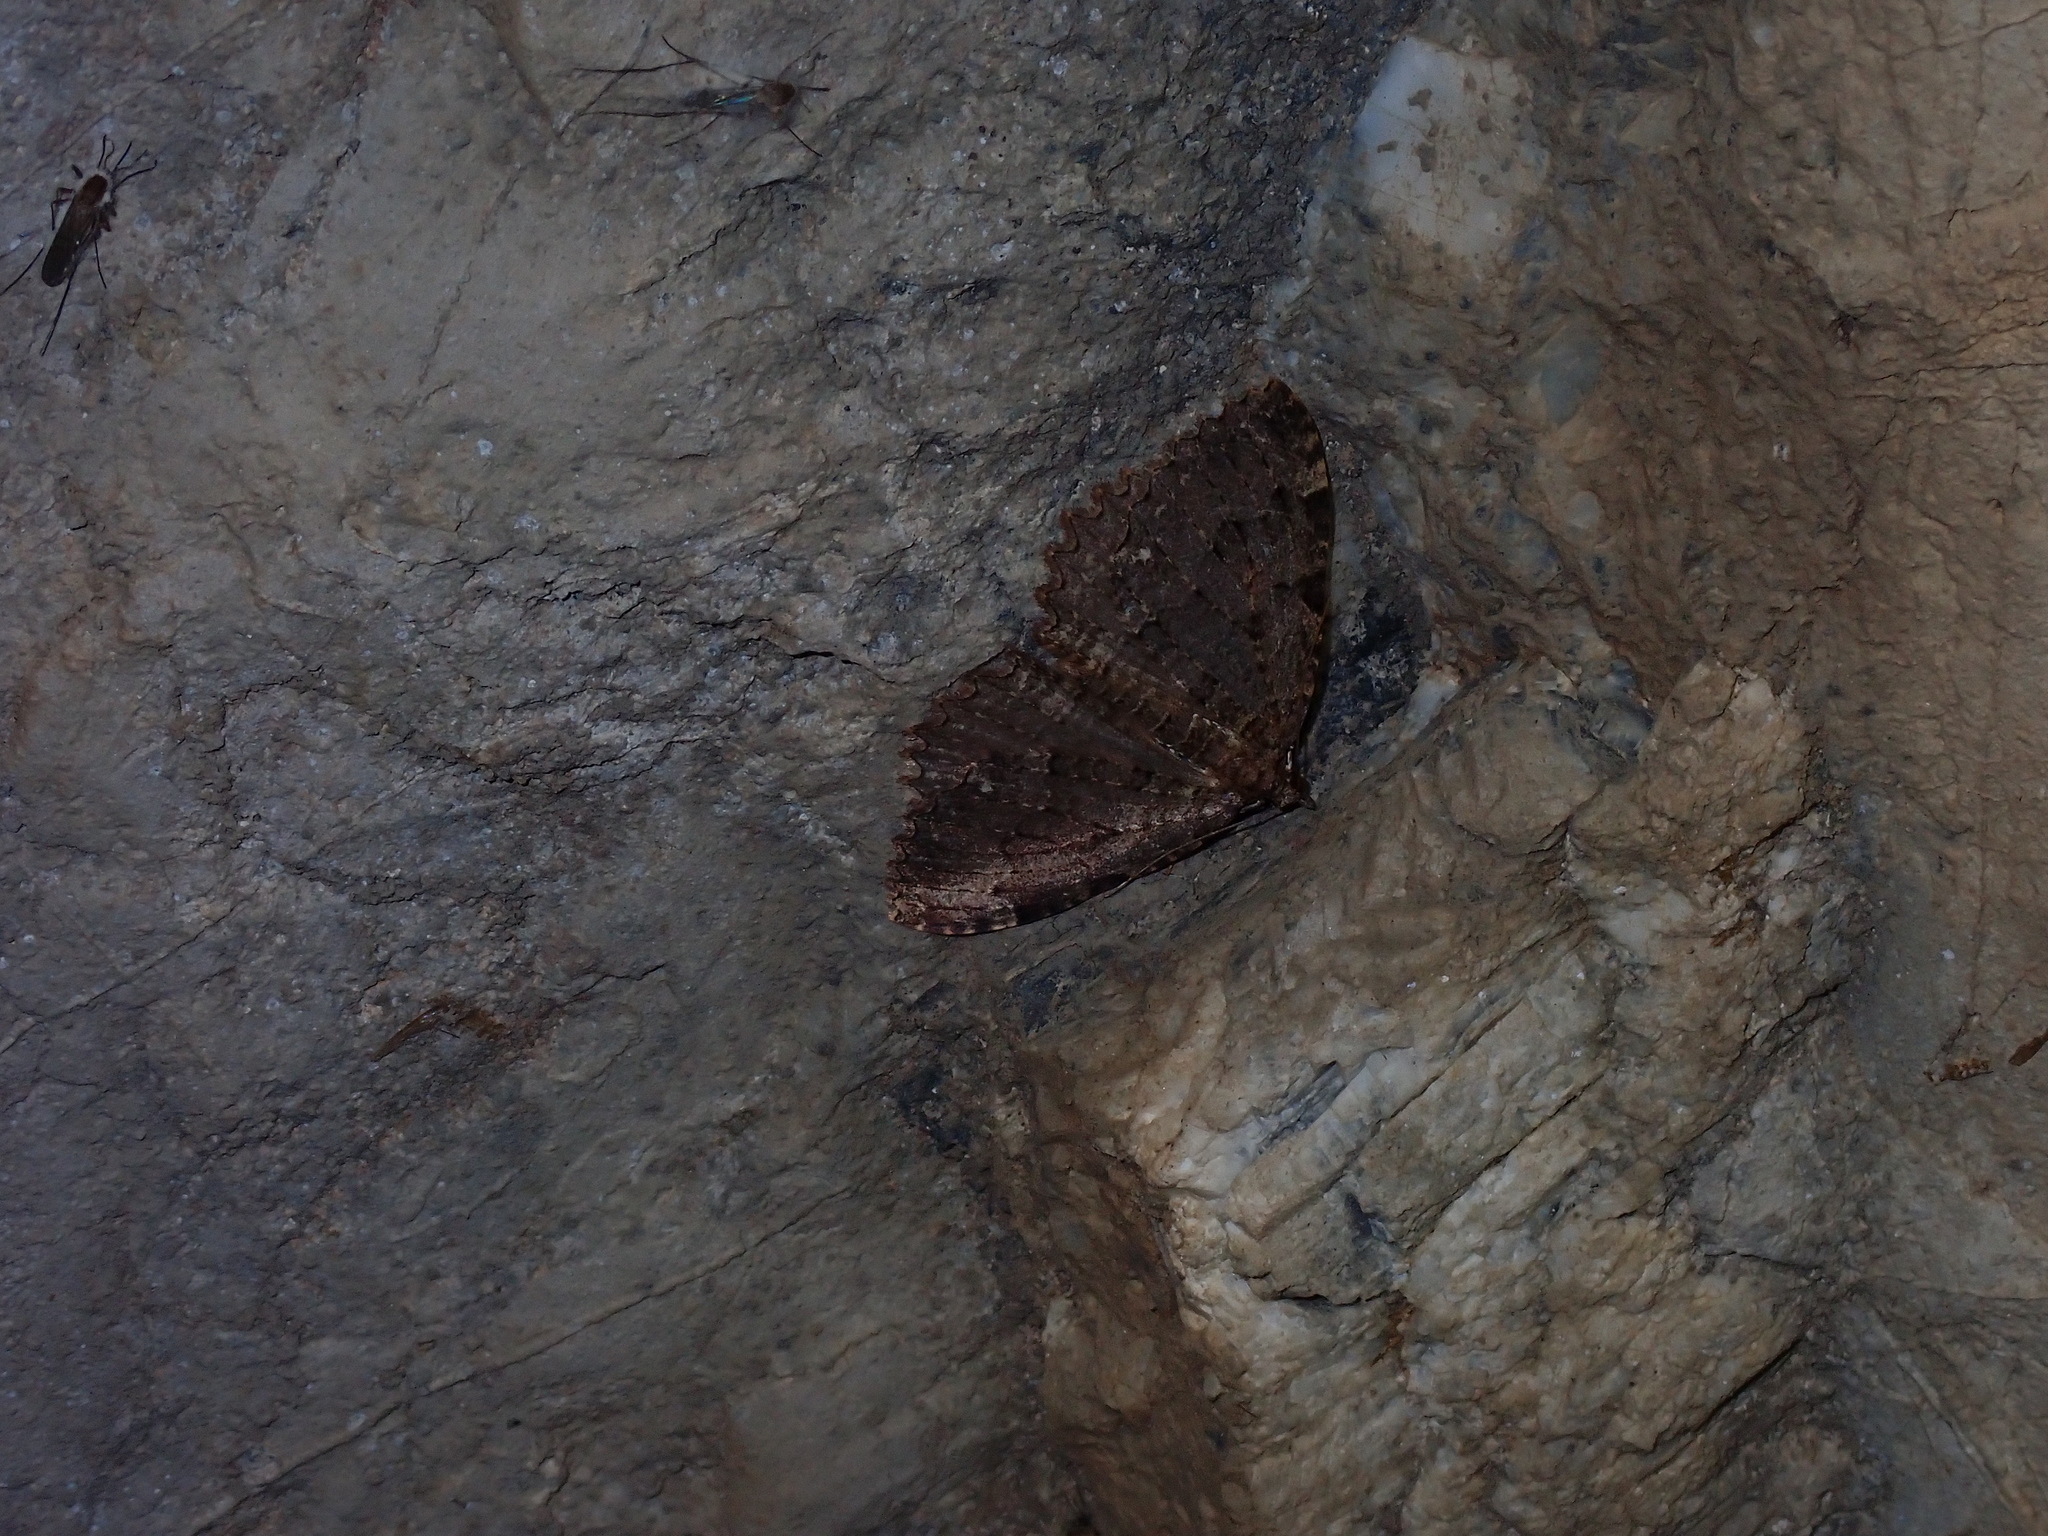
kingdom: Animalia
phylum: Arthropoda
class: Insecta
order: Lepidoptera
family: Geometridae
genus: Triphosa
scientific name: Triphosa dubitata
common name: Tissue
